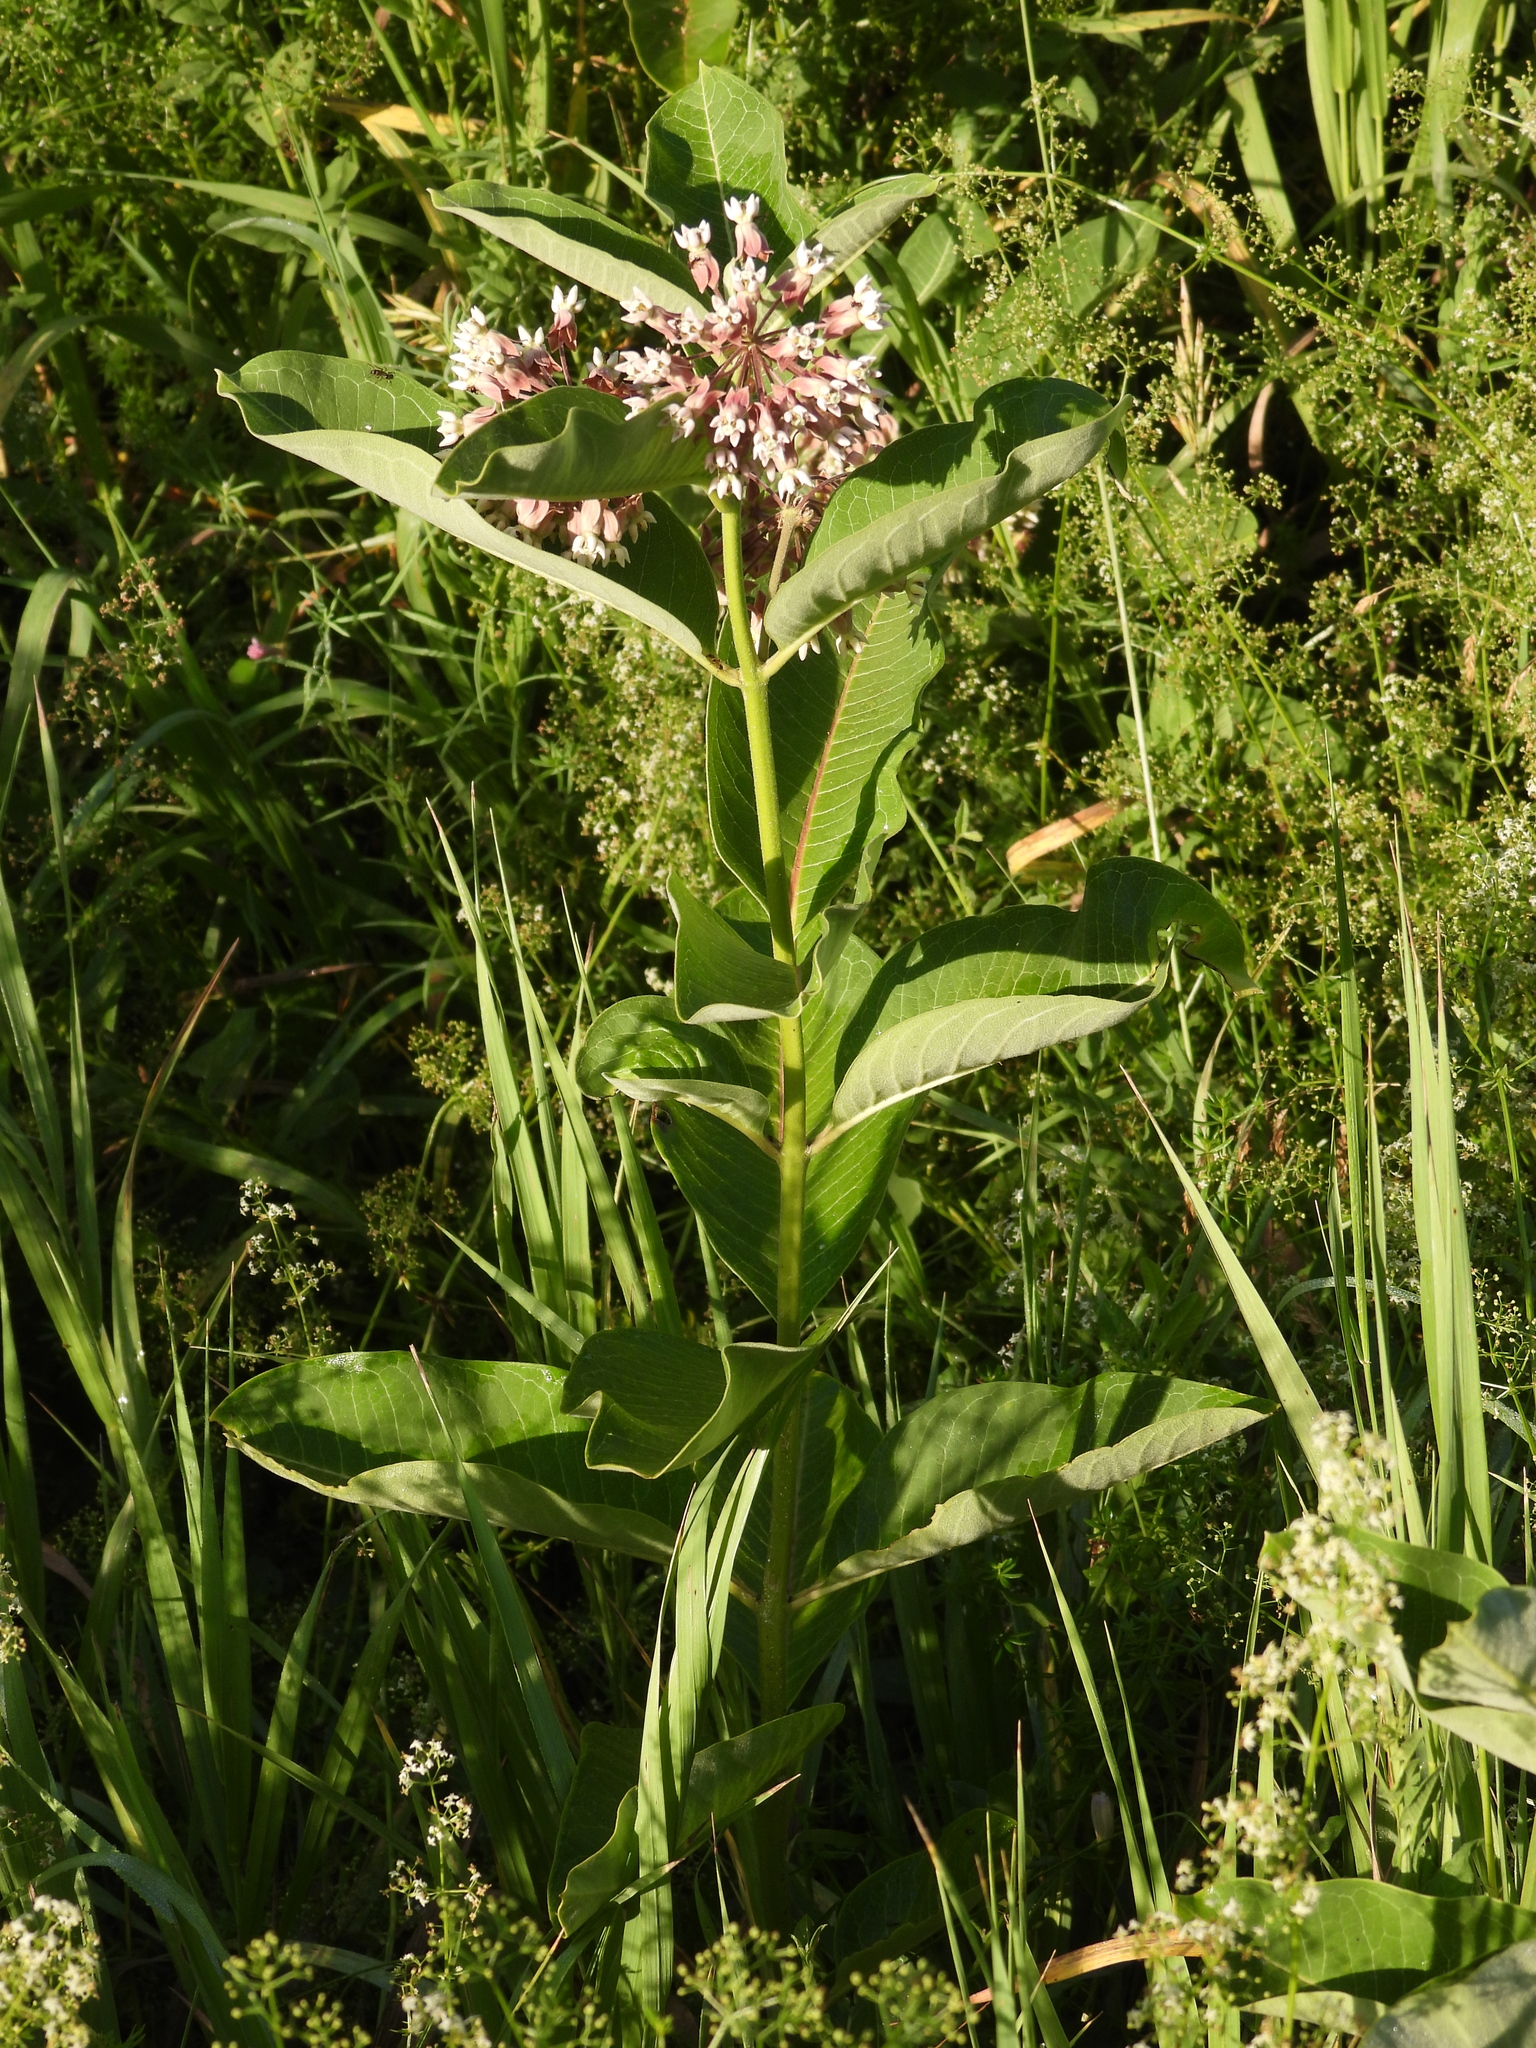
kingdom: Plantae
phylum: Tracheophyta
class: Magnoliopsida
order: Gentianales
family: Apocynaceae
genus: Asclepias
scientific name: Asclepias syriaca
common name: Common milkweed
